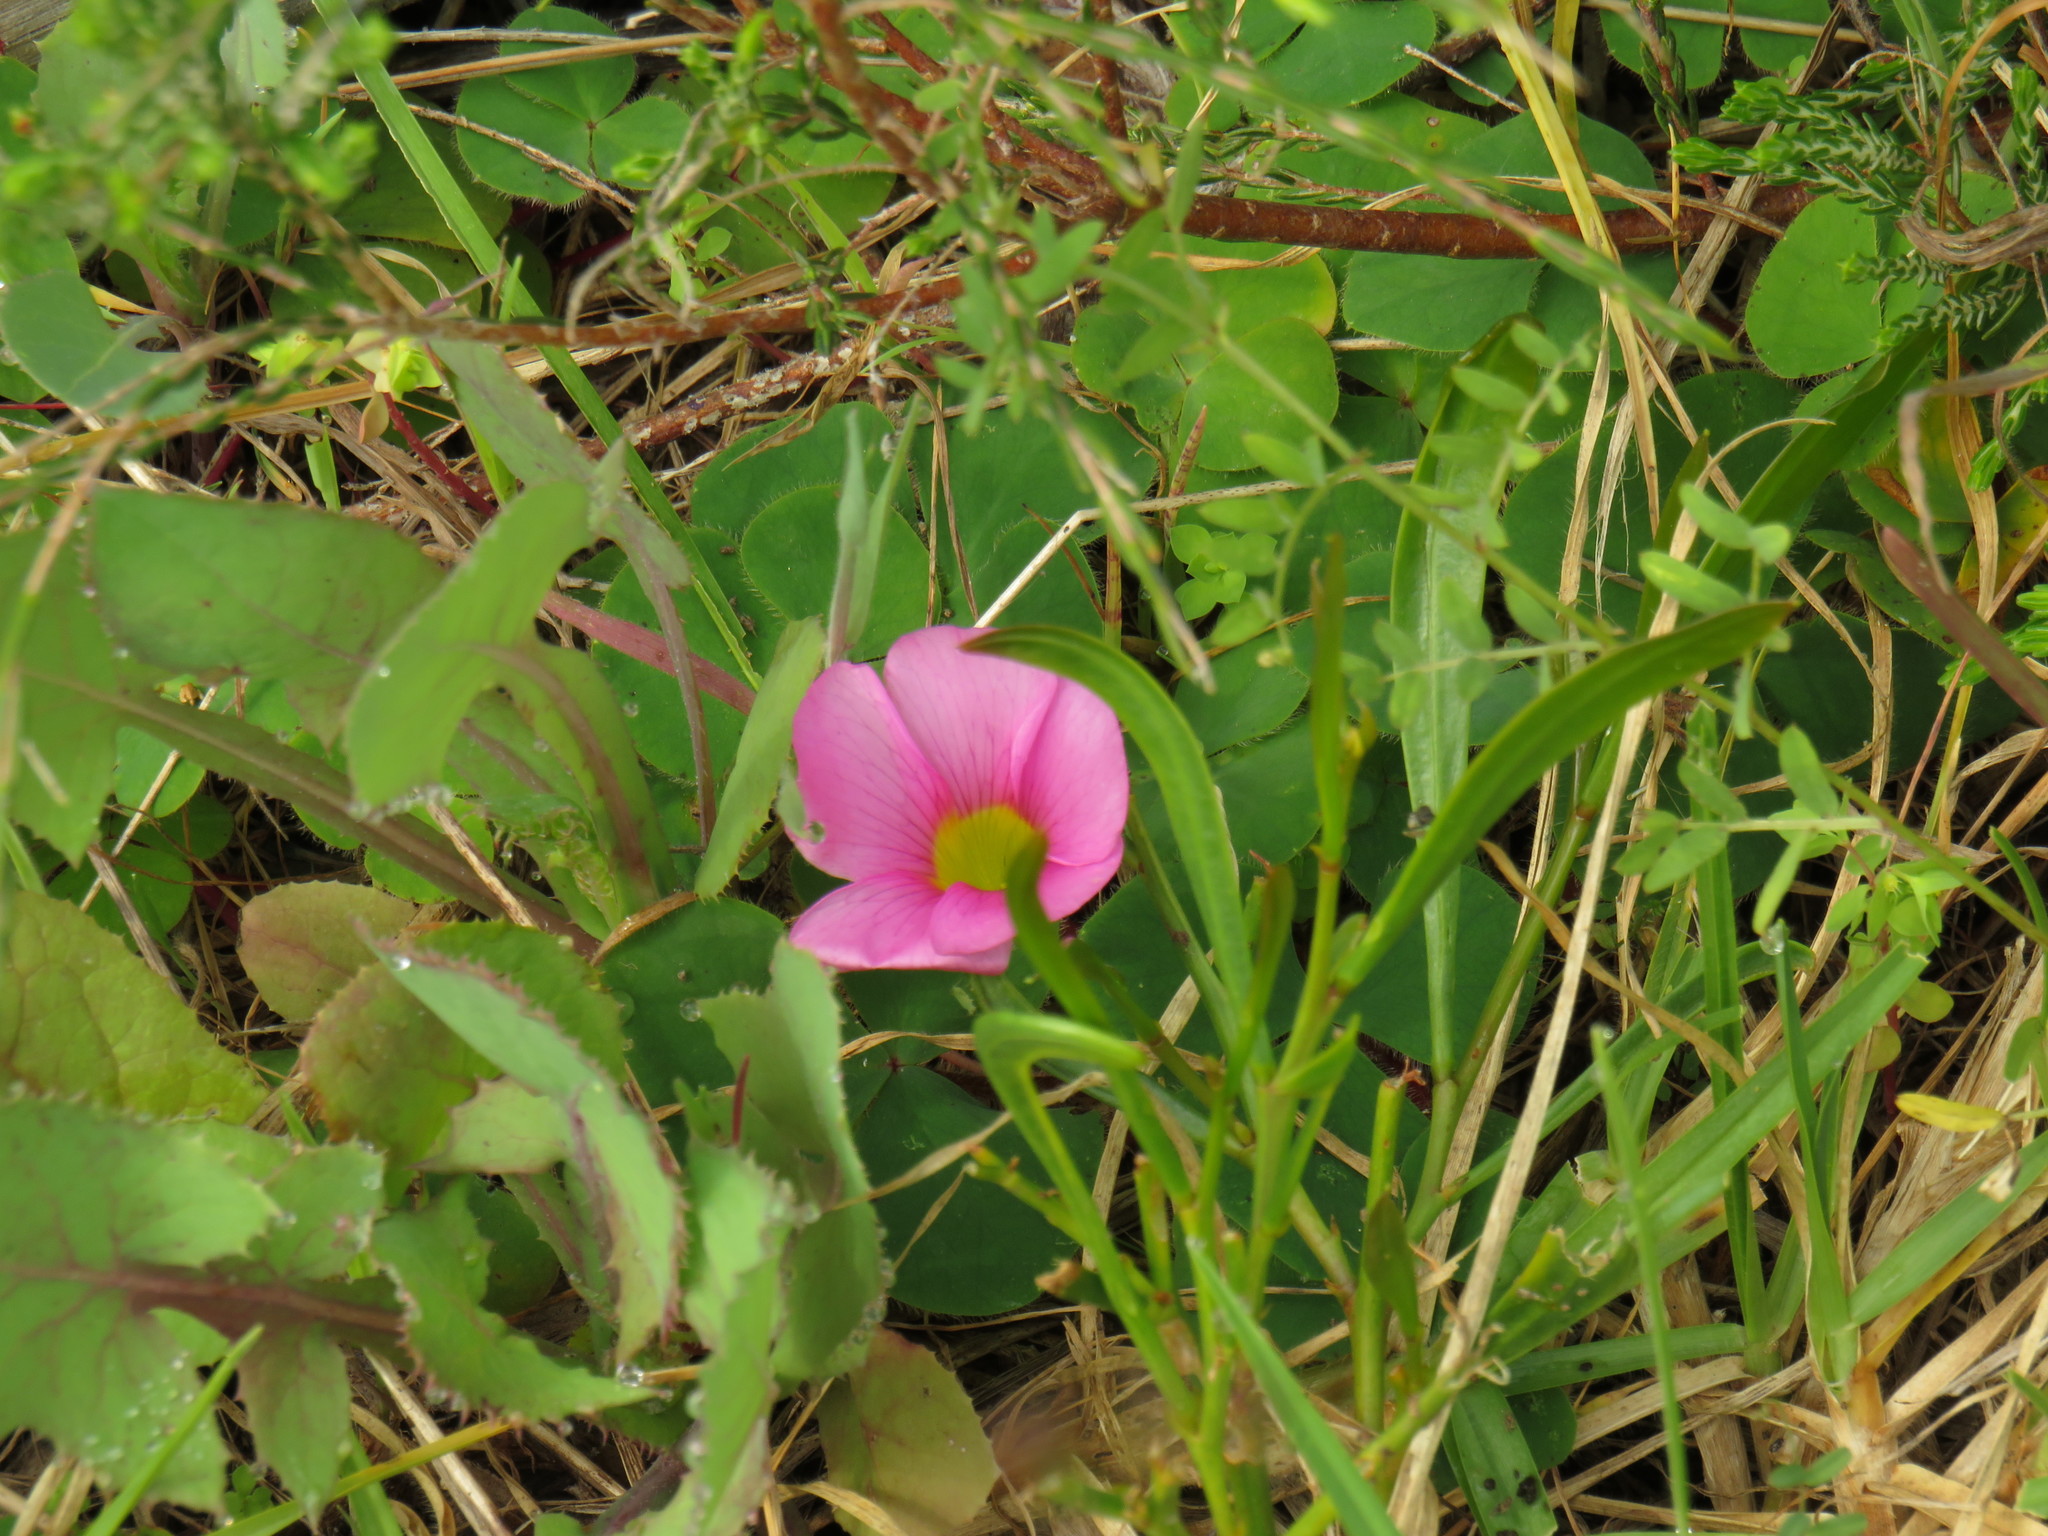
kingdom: Plantae
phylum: Tracheophyta
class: Magnoliopsida
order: Oxalidales
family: Oxalidaceae
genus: Oxalis
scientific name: Oxalis purpurea
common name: Purple woodsorrel
